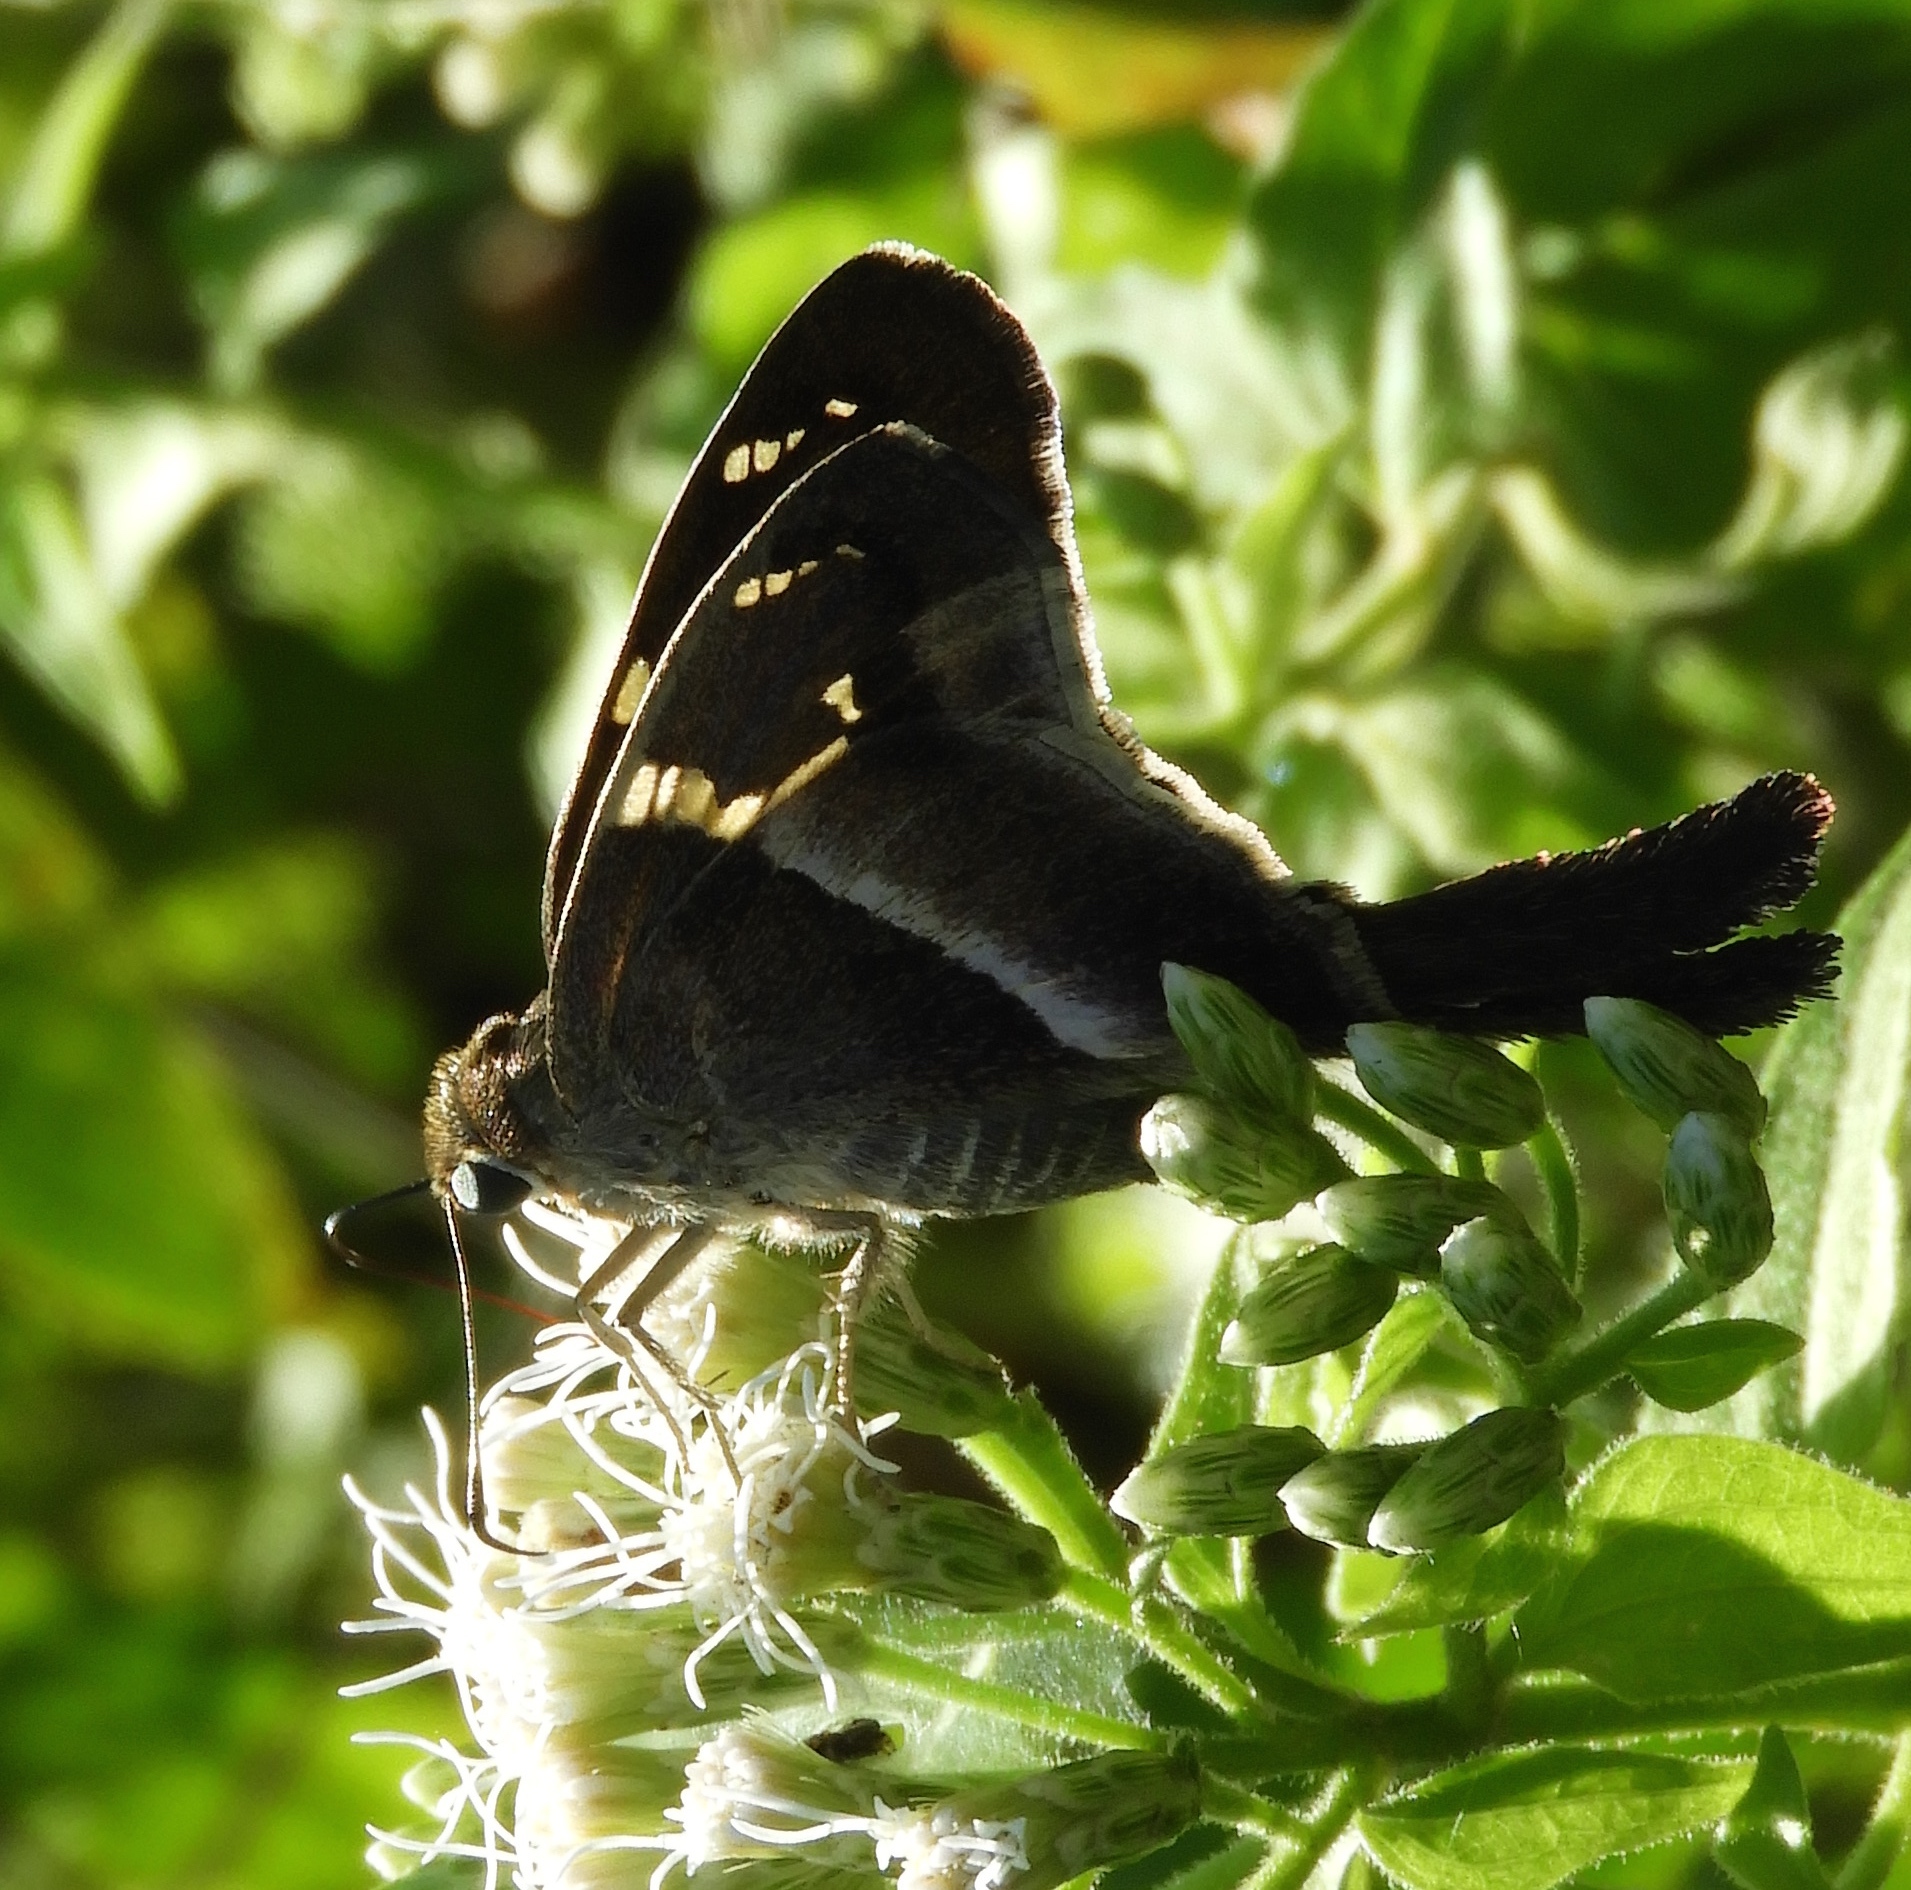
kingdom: Animalia
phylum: Arthropoda
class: Insecta
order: Lepidoptera
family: Hesperiidae
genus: Aguna
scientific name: Aguna metophis
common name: Tailed aguna
